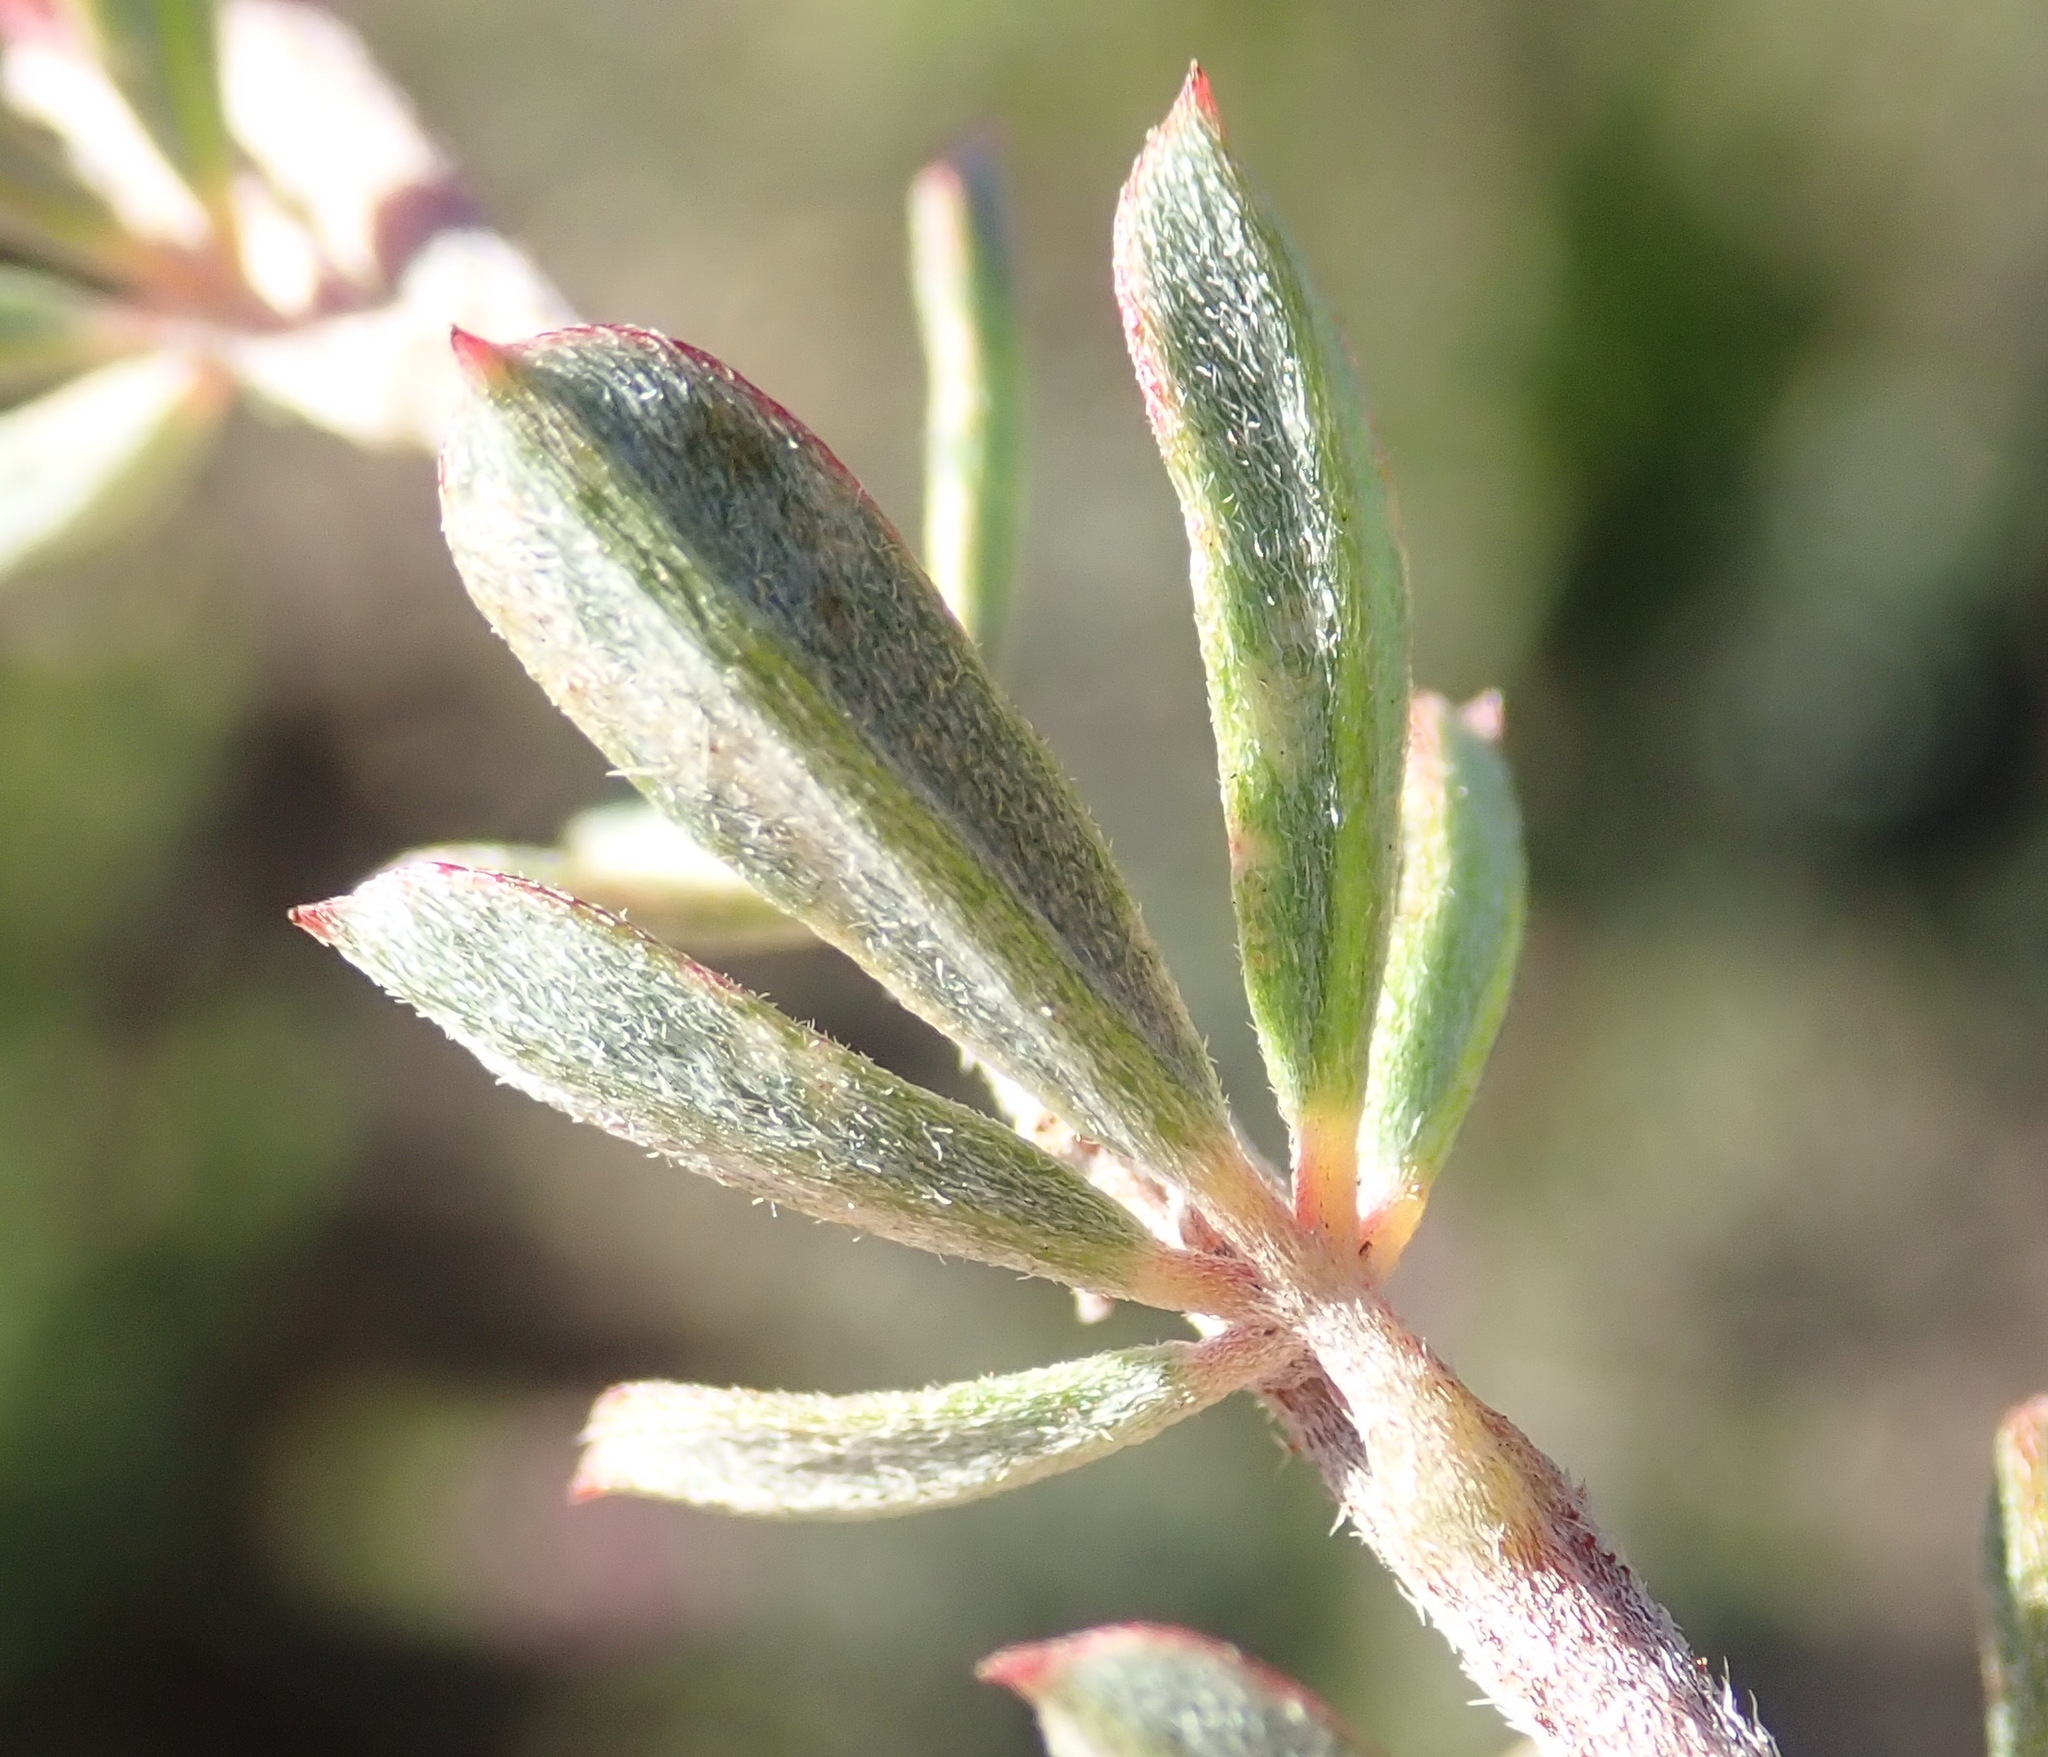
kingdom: Plantae
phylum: Tracheophyta
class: Magnoliopsida
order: Fabales
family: Fabaceae
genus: Indigofera
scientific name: Indigofera flabellata
